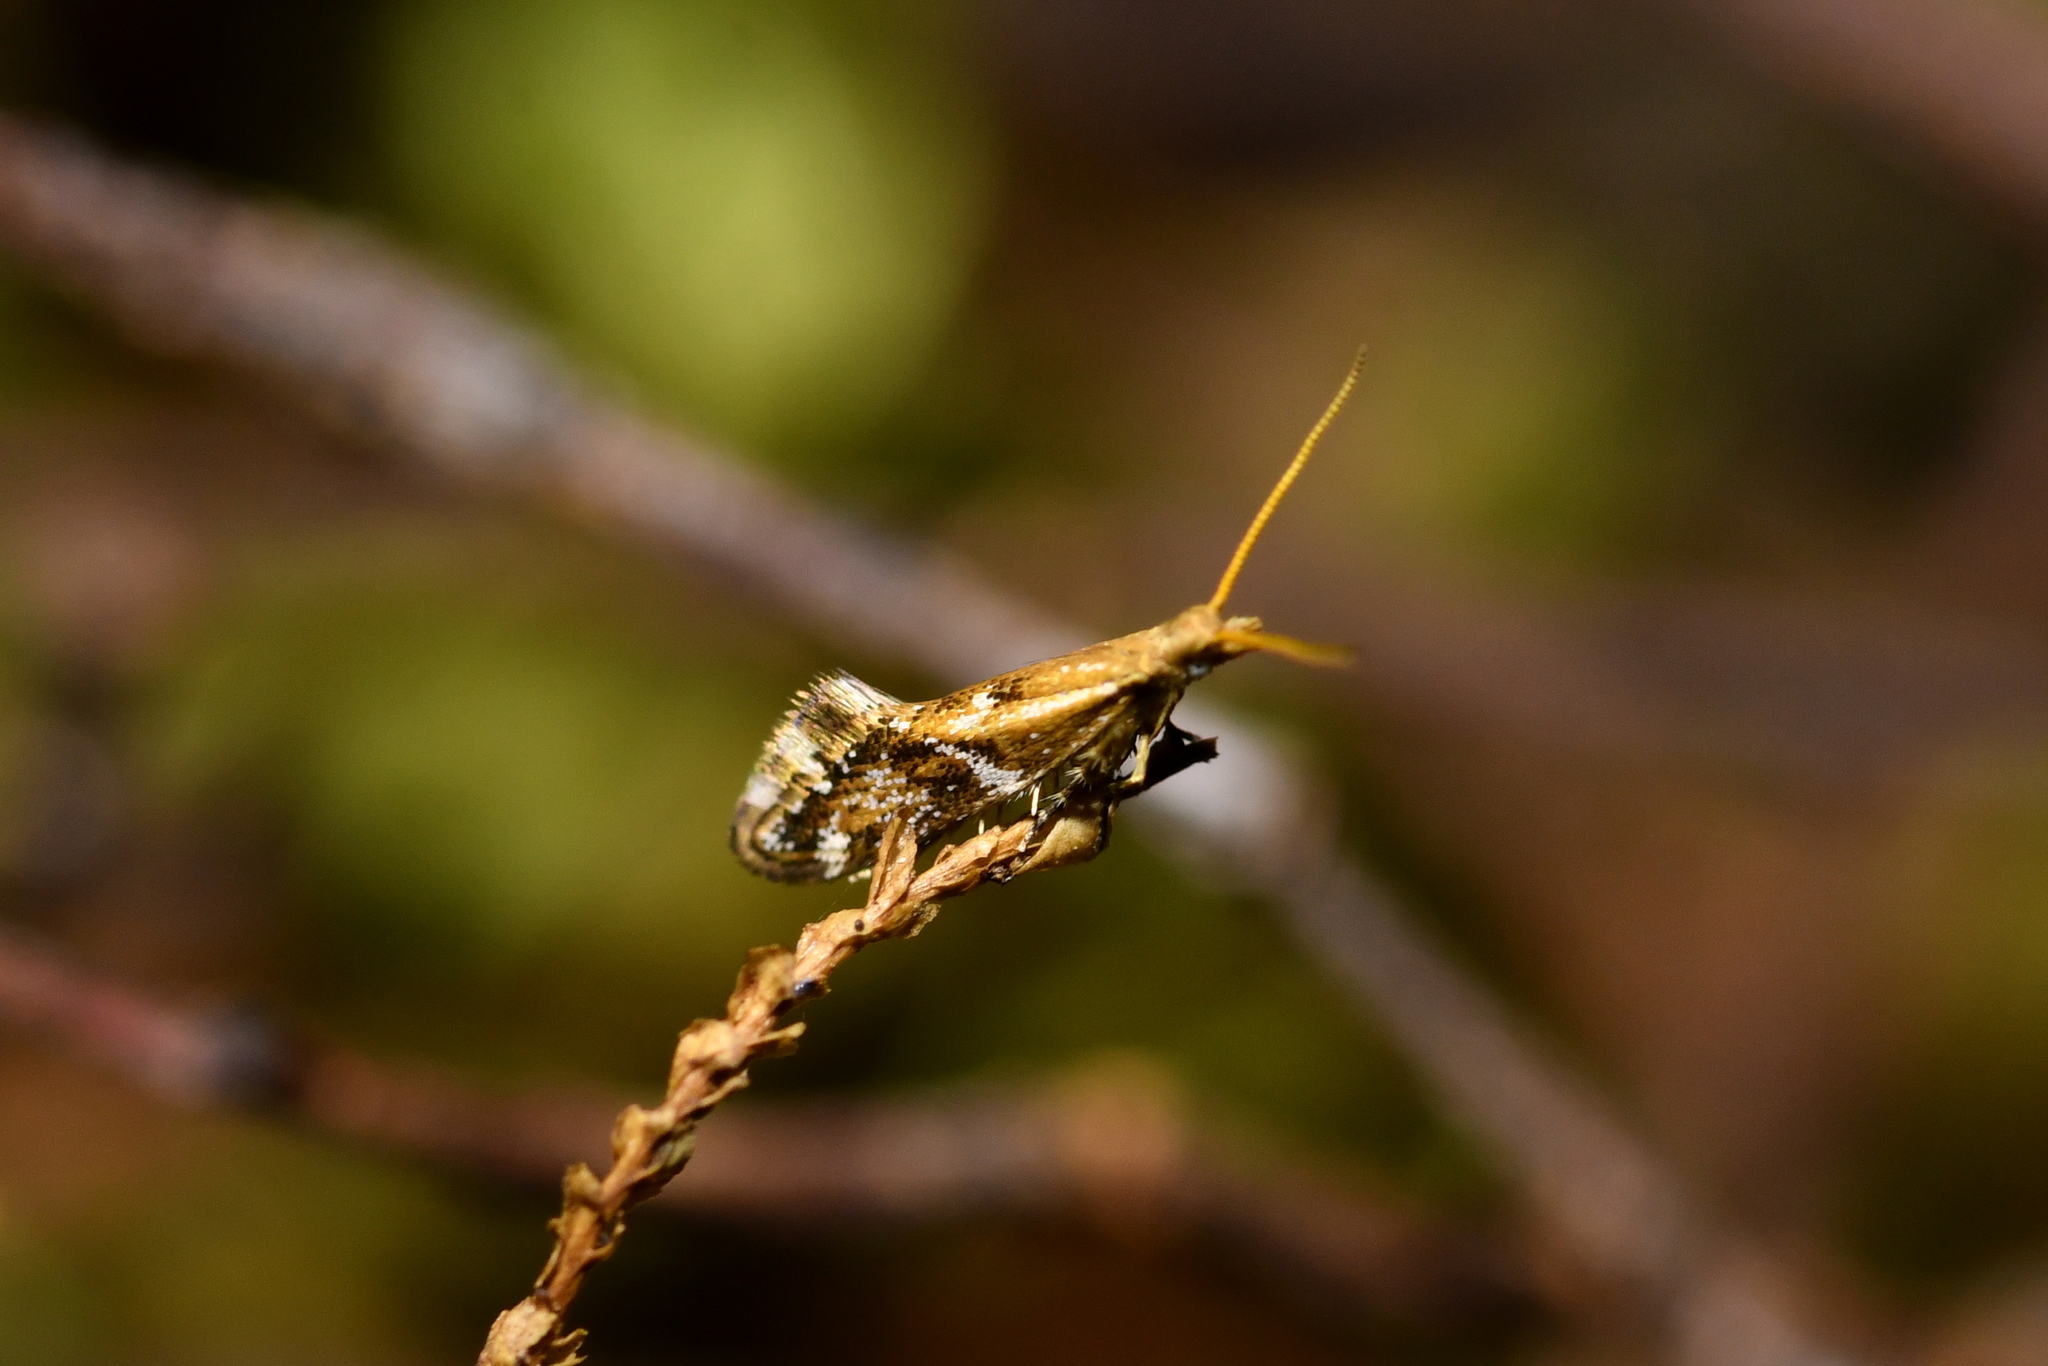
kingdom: Animalia
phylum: Arthropoda
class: Insecta
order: Lepidoptera
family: Mnesarchaeidae
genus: Mnesarchaea
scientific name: Mnesarchaea paracosma
